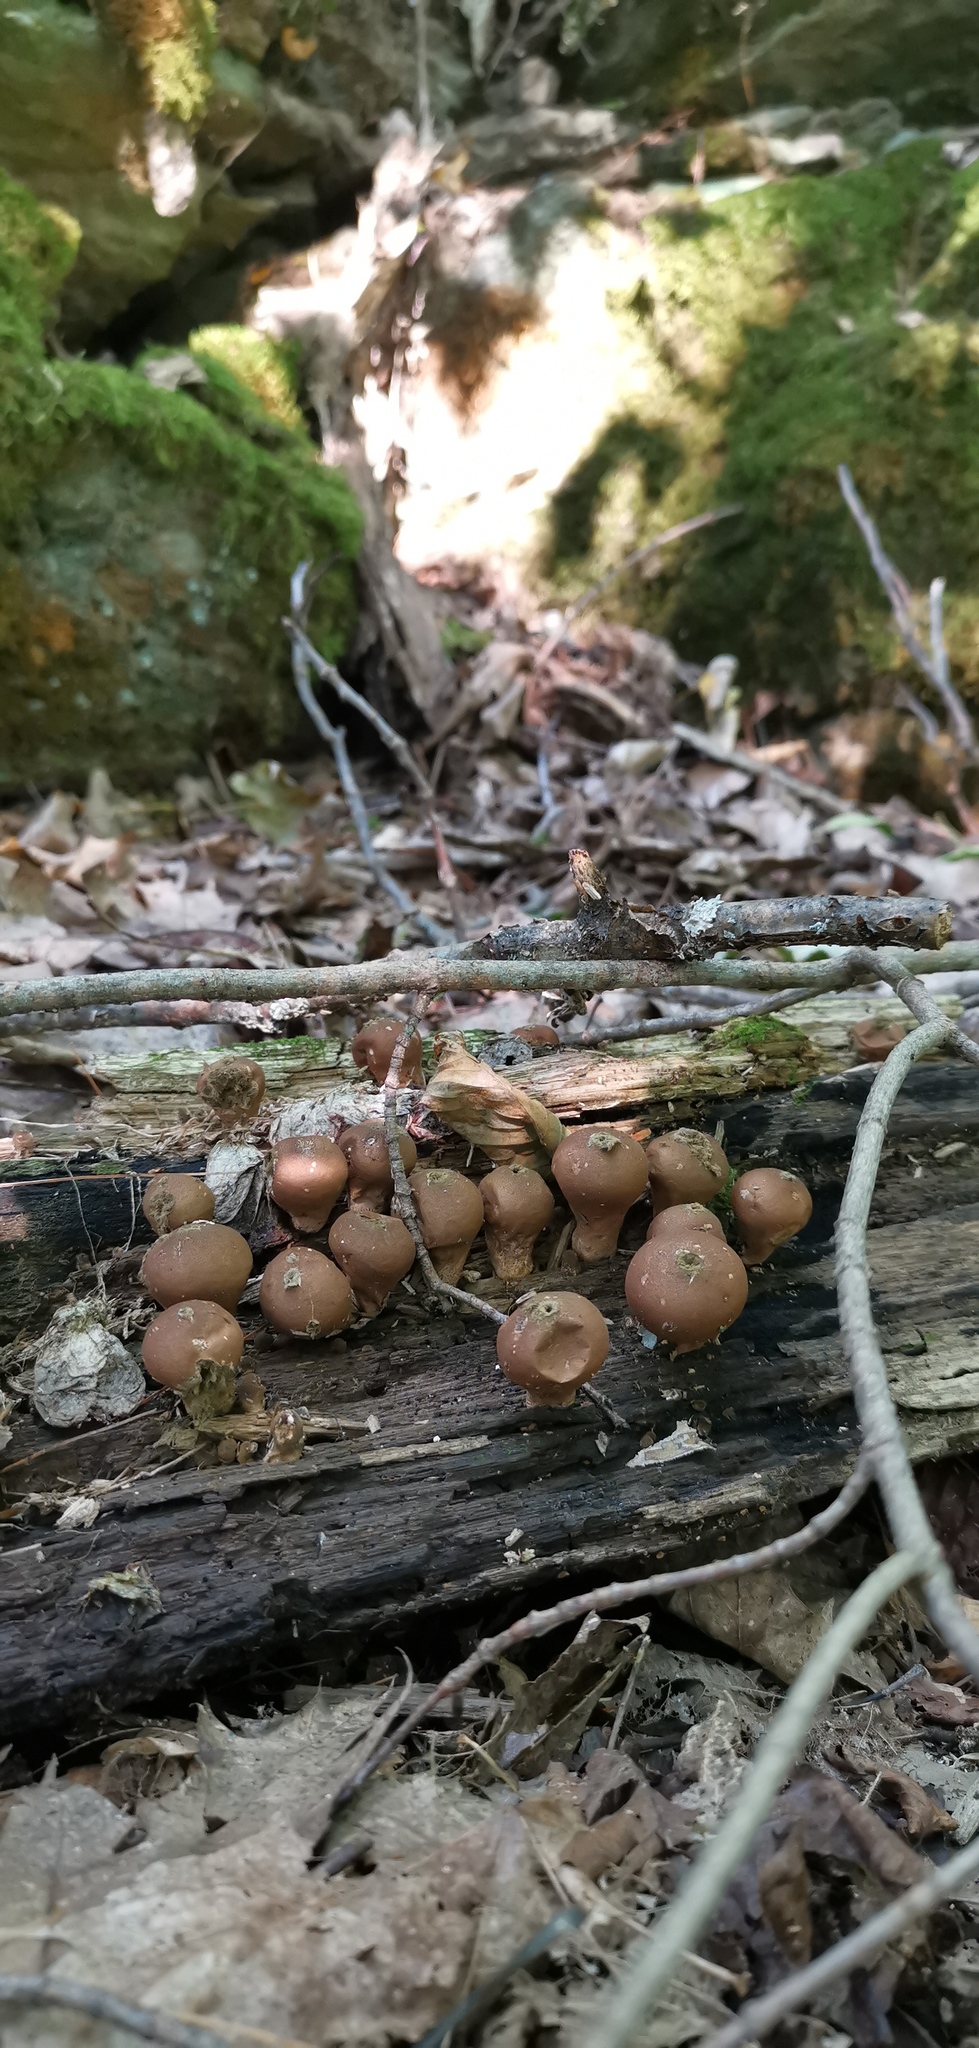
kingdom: Fungi
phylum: Basidiomycota
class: Agaricomycetes
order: Agaricales
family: Lycoperdaceae
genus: Apioperdon
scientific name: Apioperdon pyriforme
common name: Pear-shaped puffball
